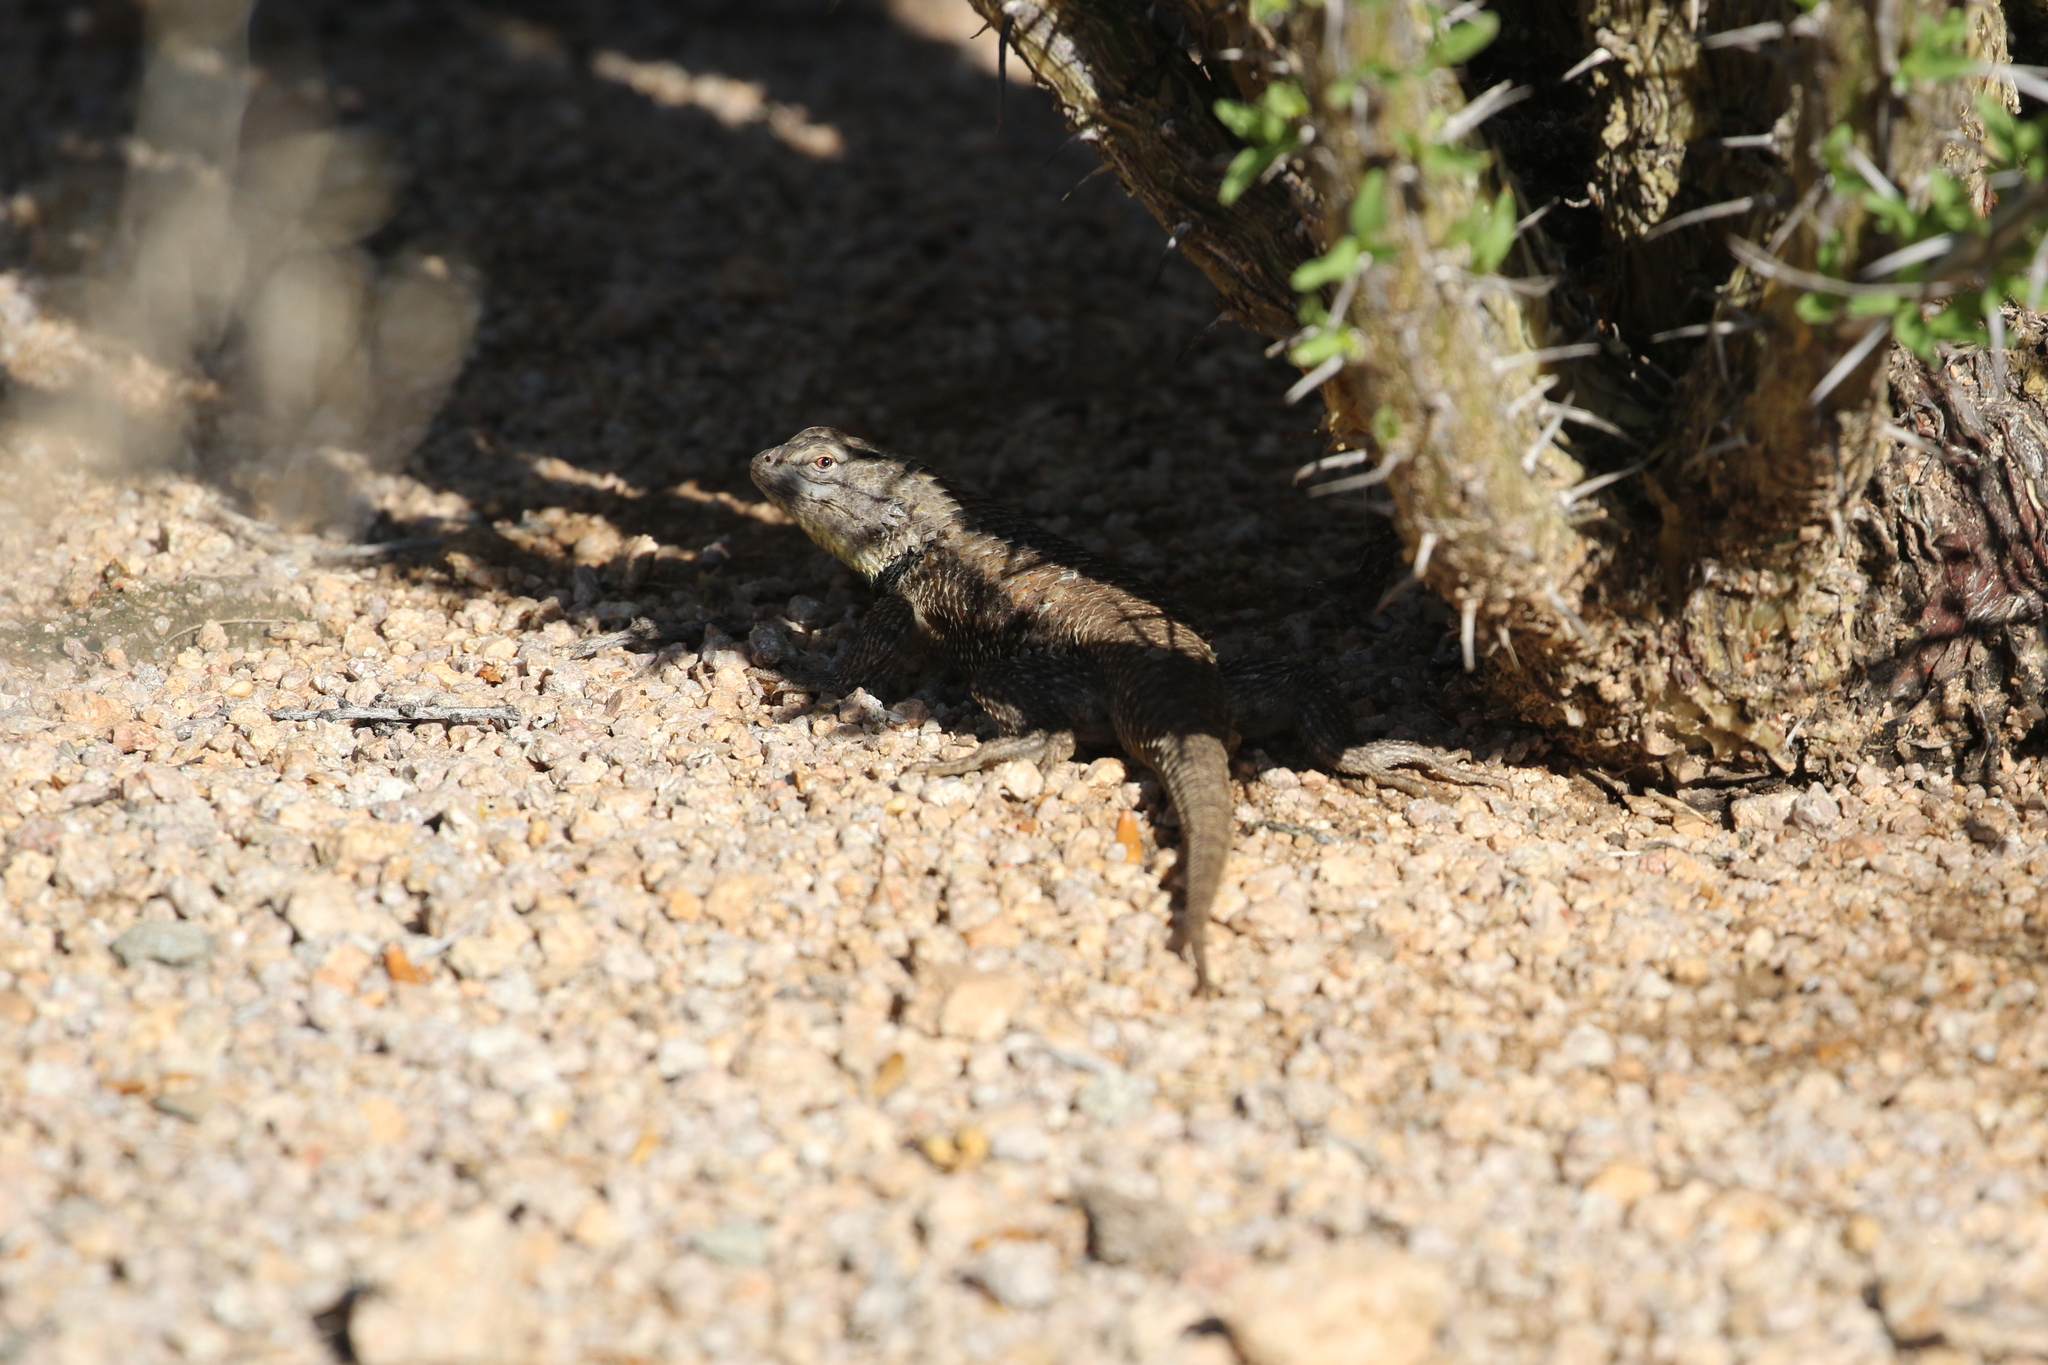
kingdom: Animalia
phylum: Chordata
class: Squamata
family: Phrynosomatidae
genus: Sceloporus
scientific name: Sceloporus magister
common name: Desert spiny lizard
